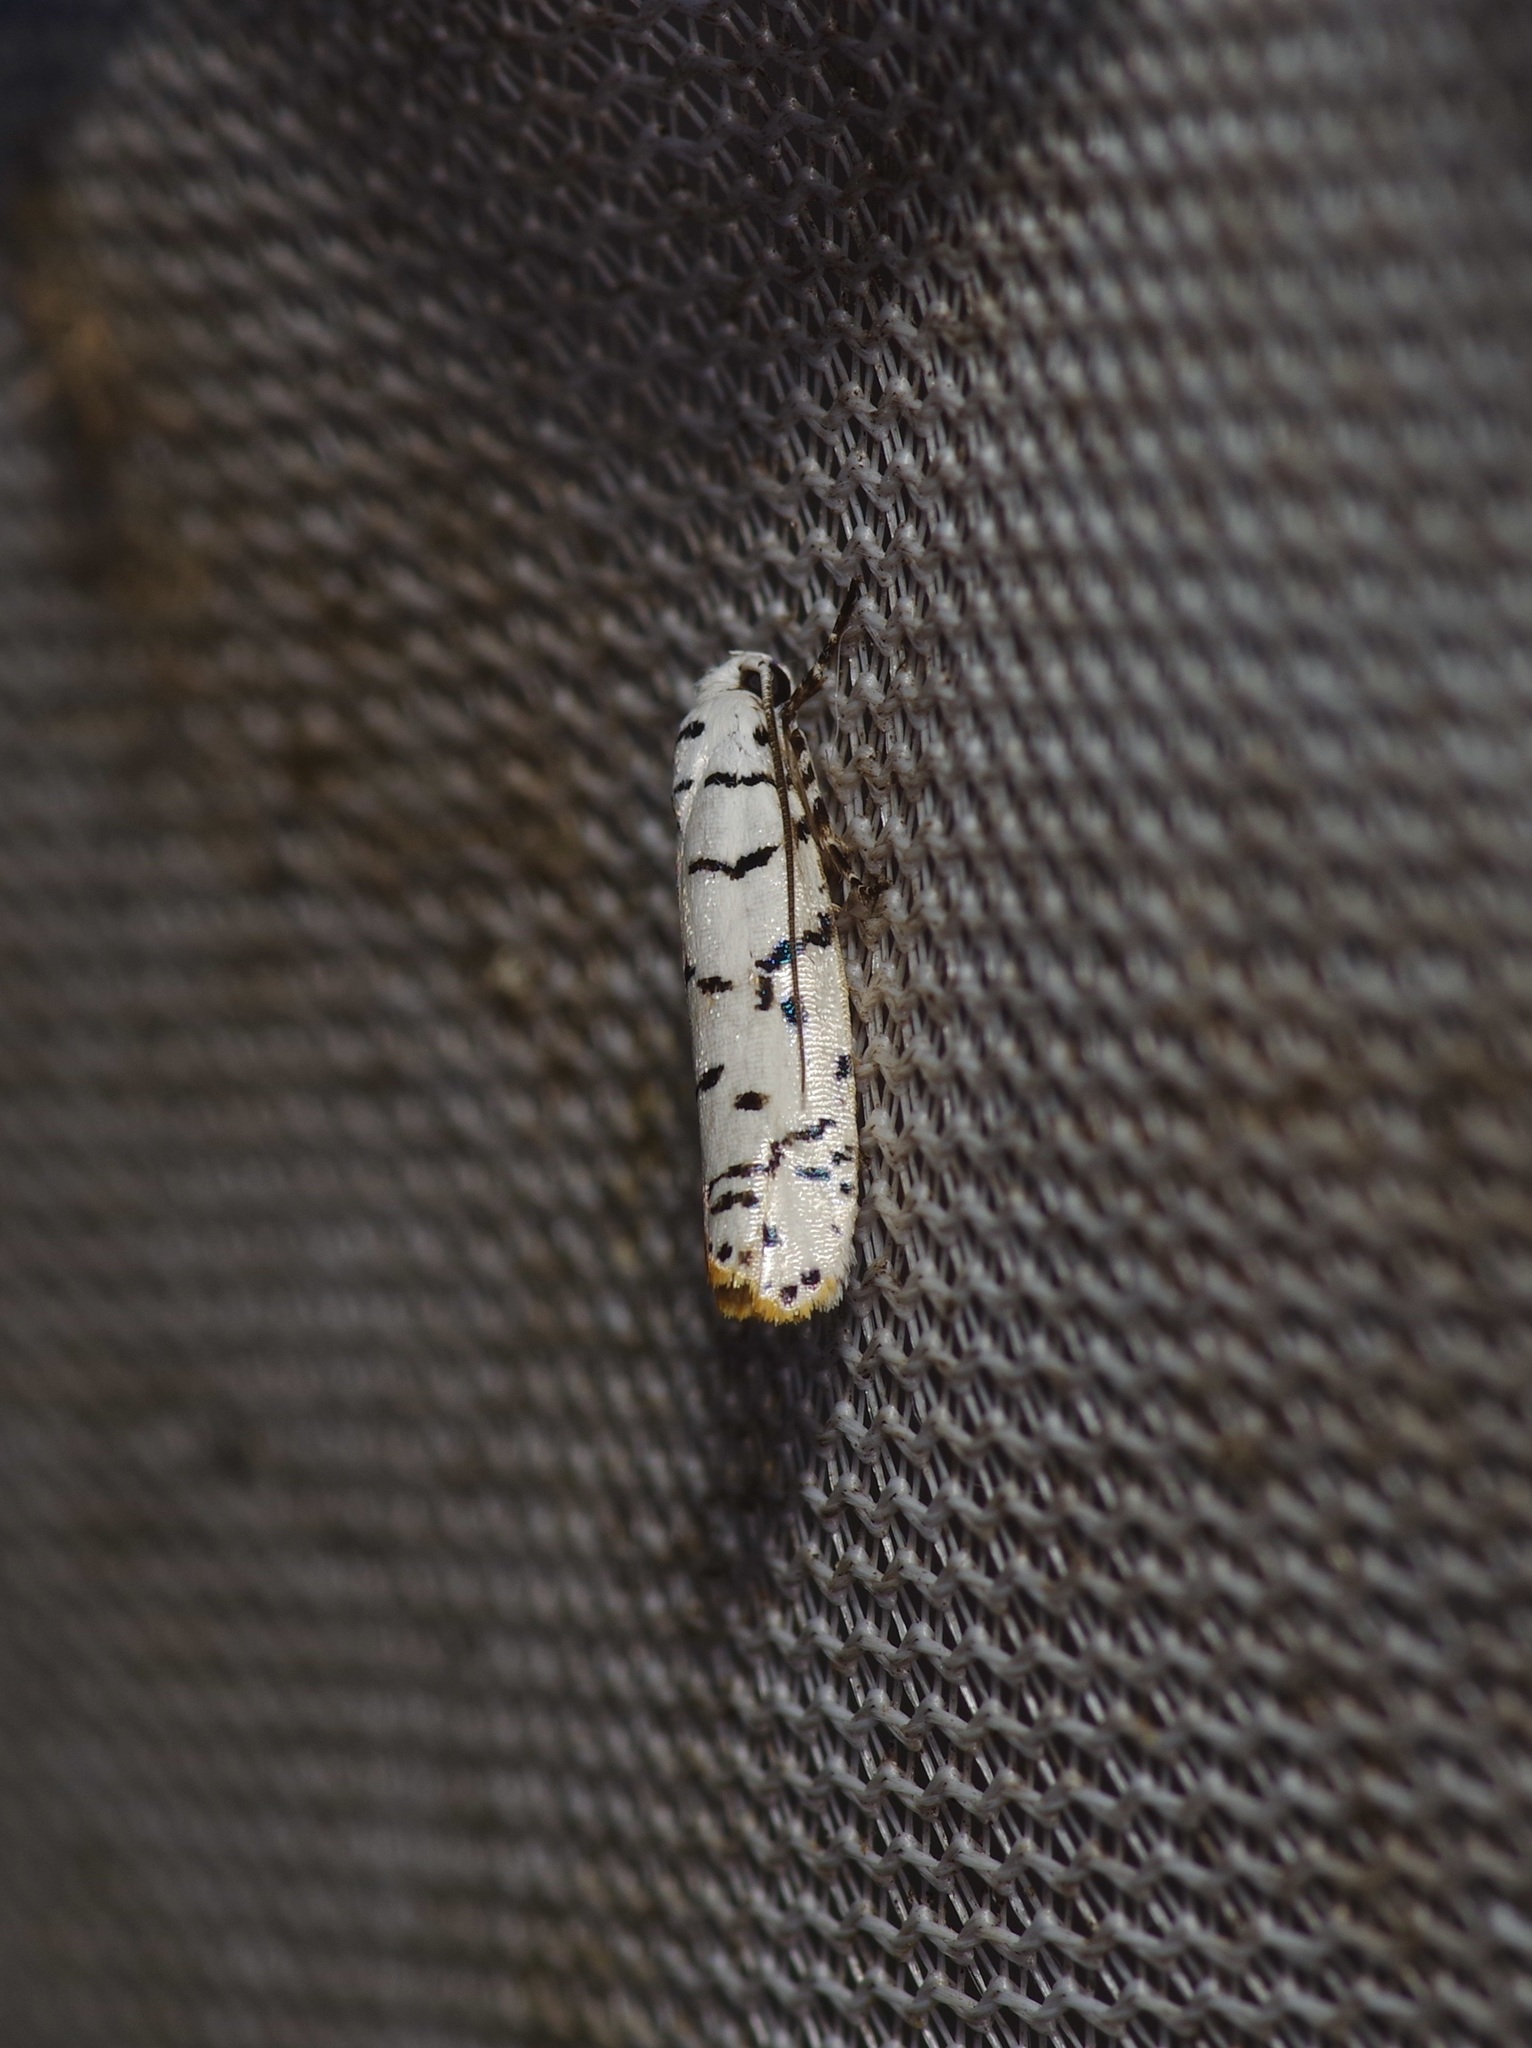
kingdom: Animalia
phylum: Arthropoda
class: Insecta
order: Lepidoptera
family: Ethmiidae
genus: Ethmia
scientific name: Ethmia delliella
